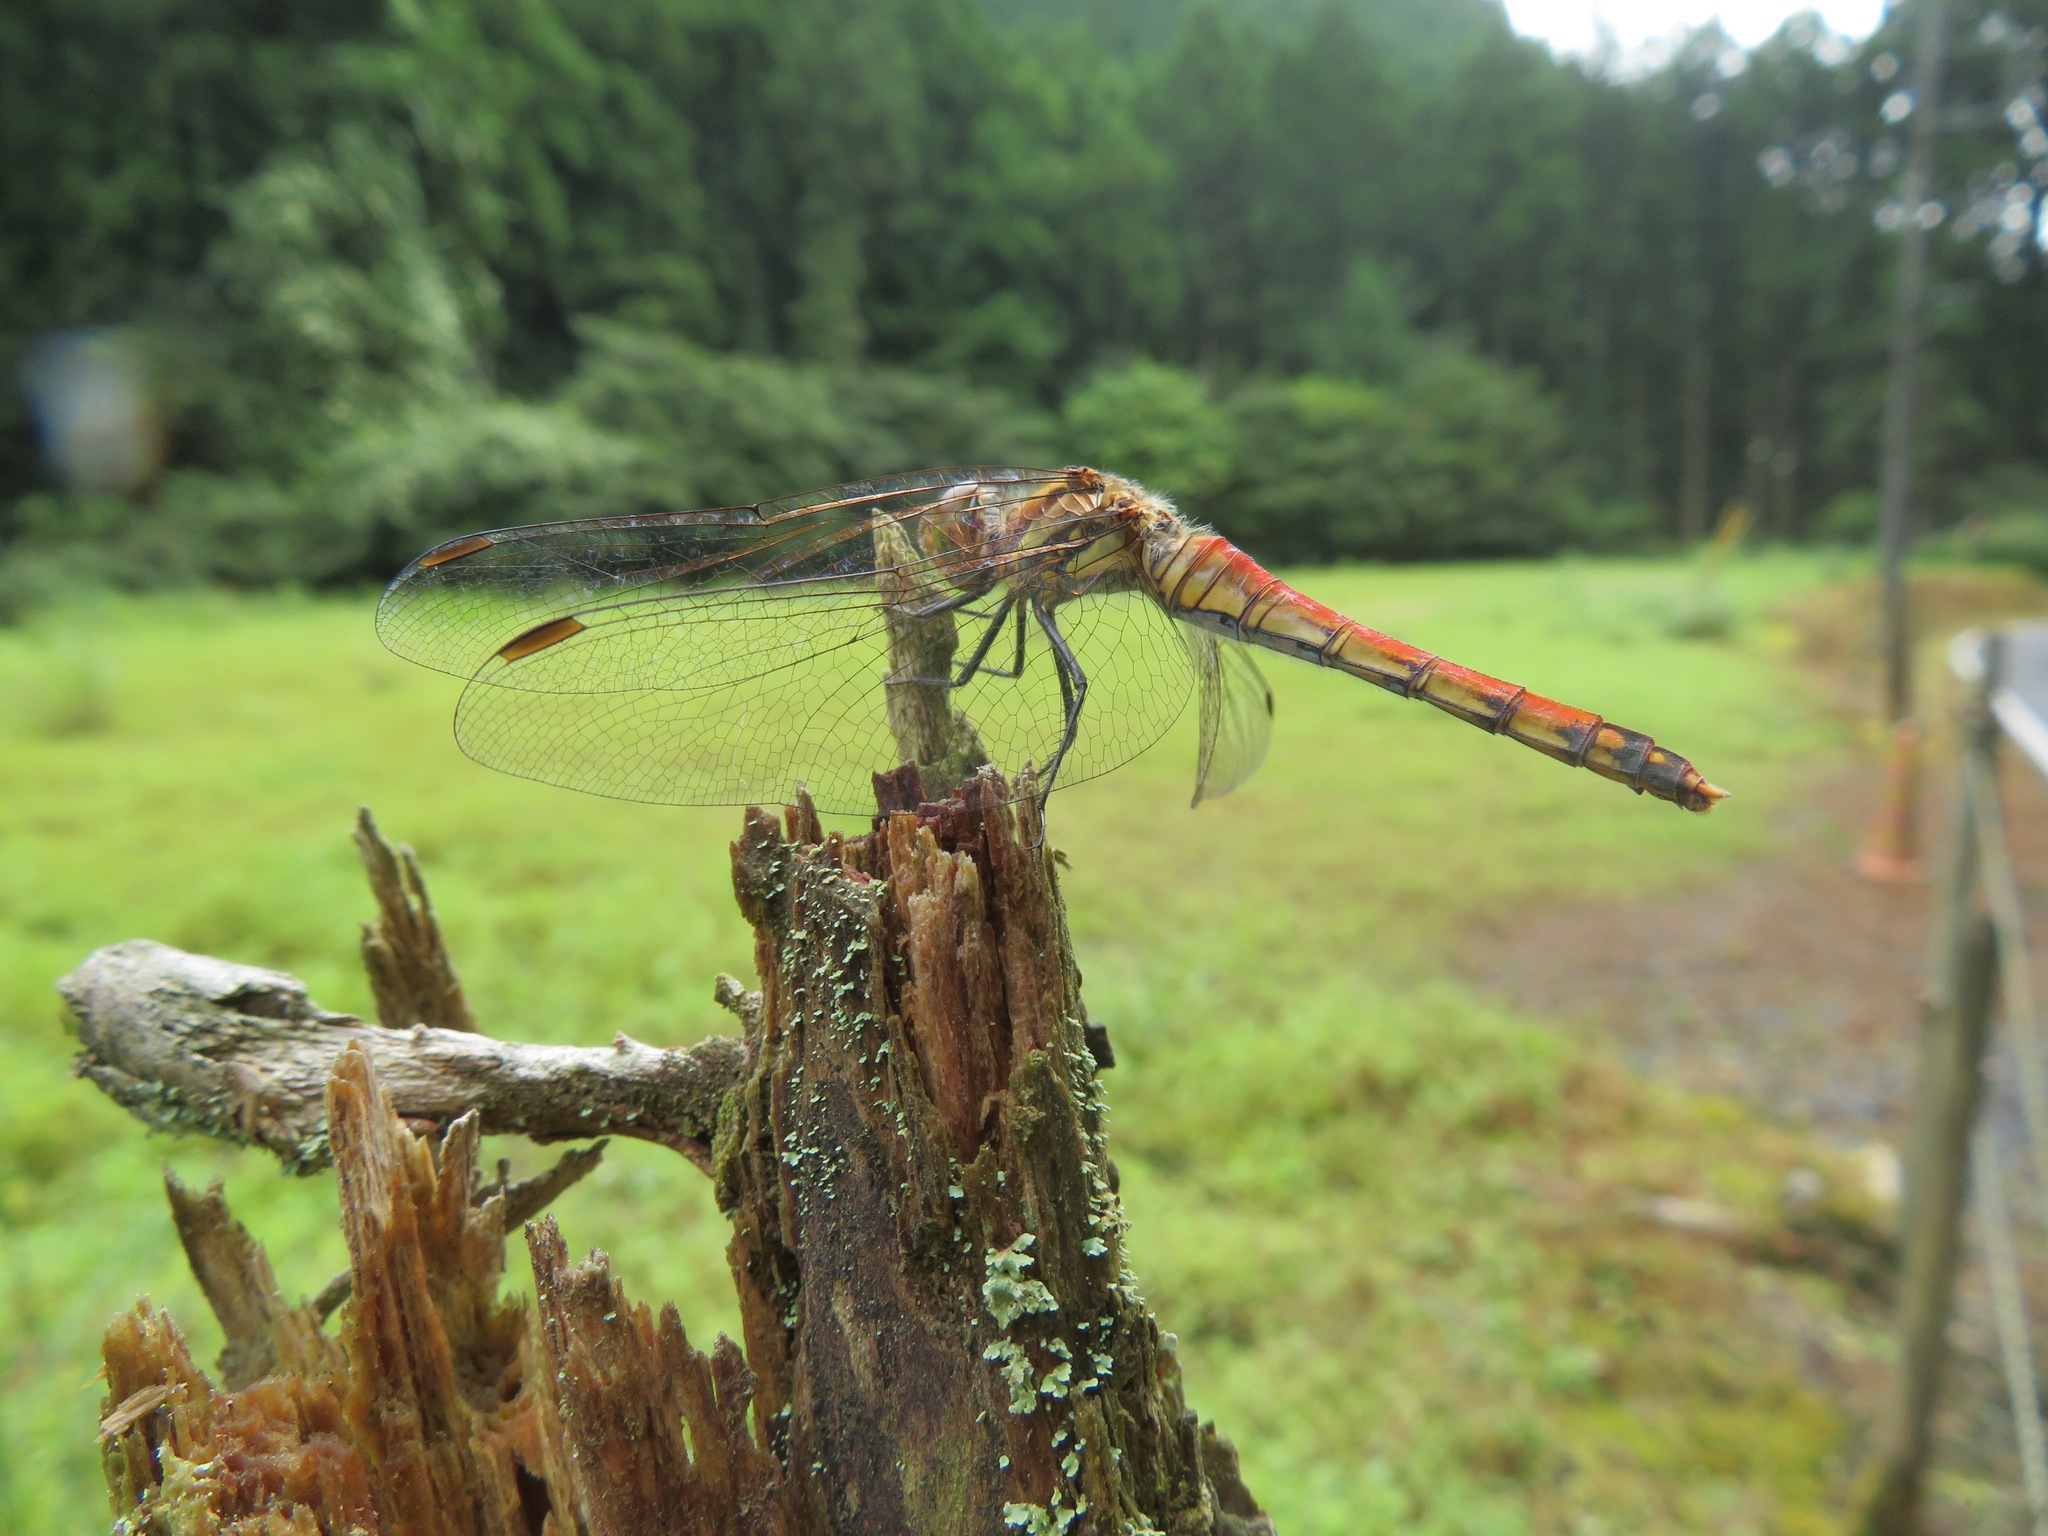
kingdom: Animalia
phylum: Arthropoda
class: Insecta
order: Odonata
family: Libellulidae
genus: Sympetrum
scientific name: Sympetrum frequens
